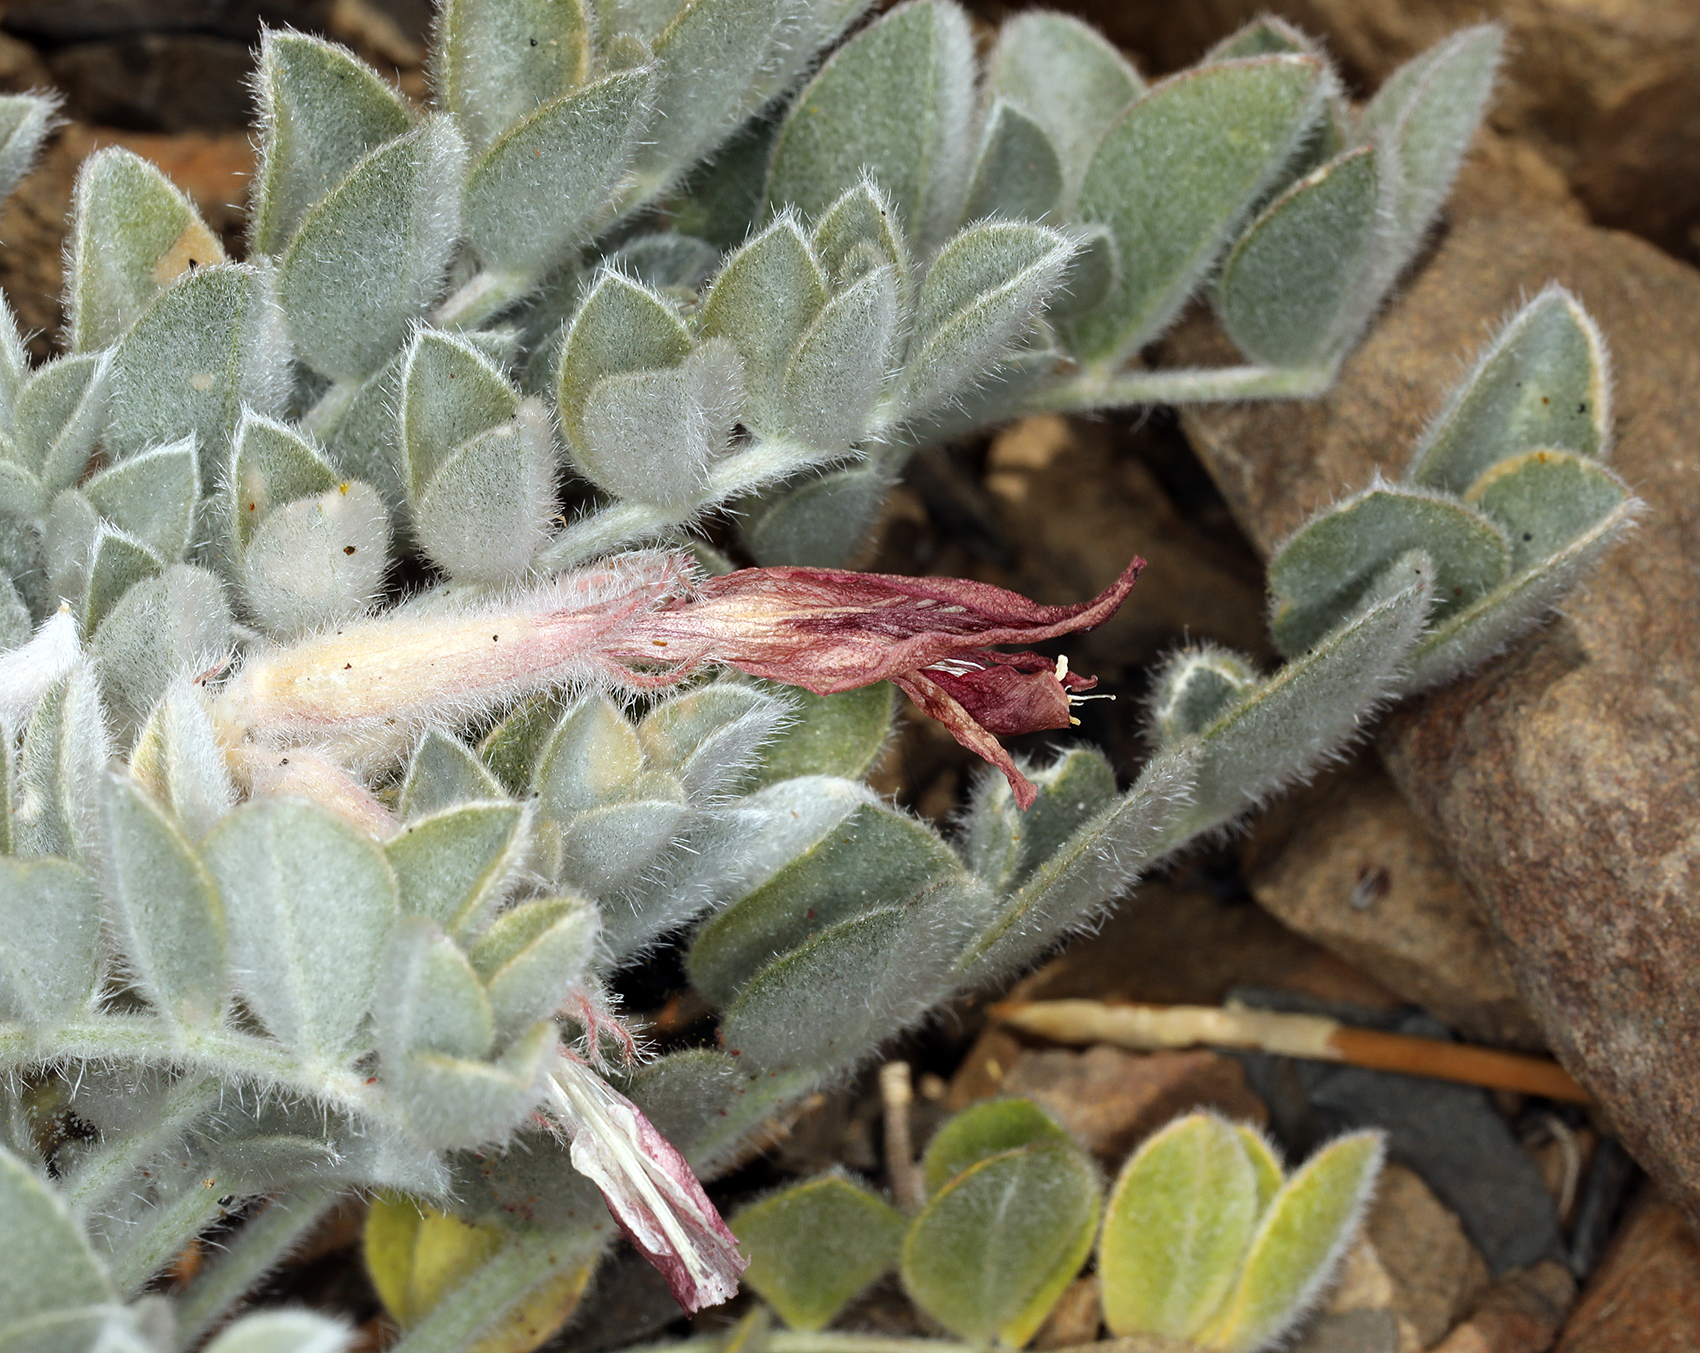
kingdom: Plantae
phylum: Tracheophyta
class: Magnoliopsida
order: Fabales
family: Fabaceae
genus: Astragalus
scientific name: Astragalus coccineus
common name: Scarlet milk-vetch
